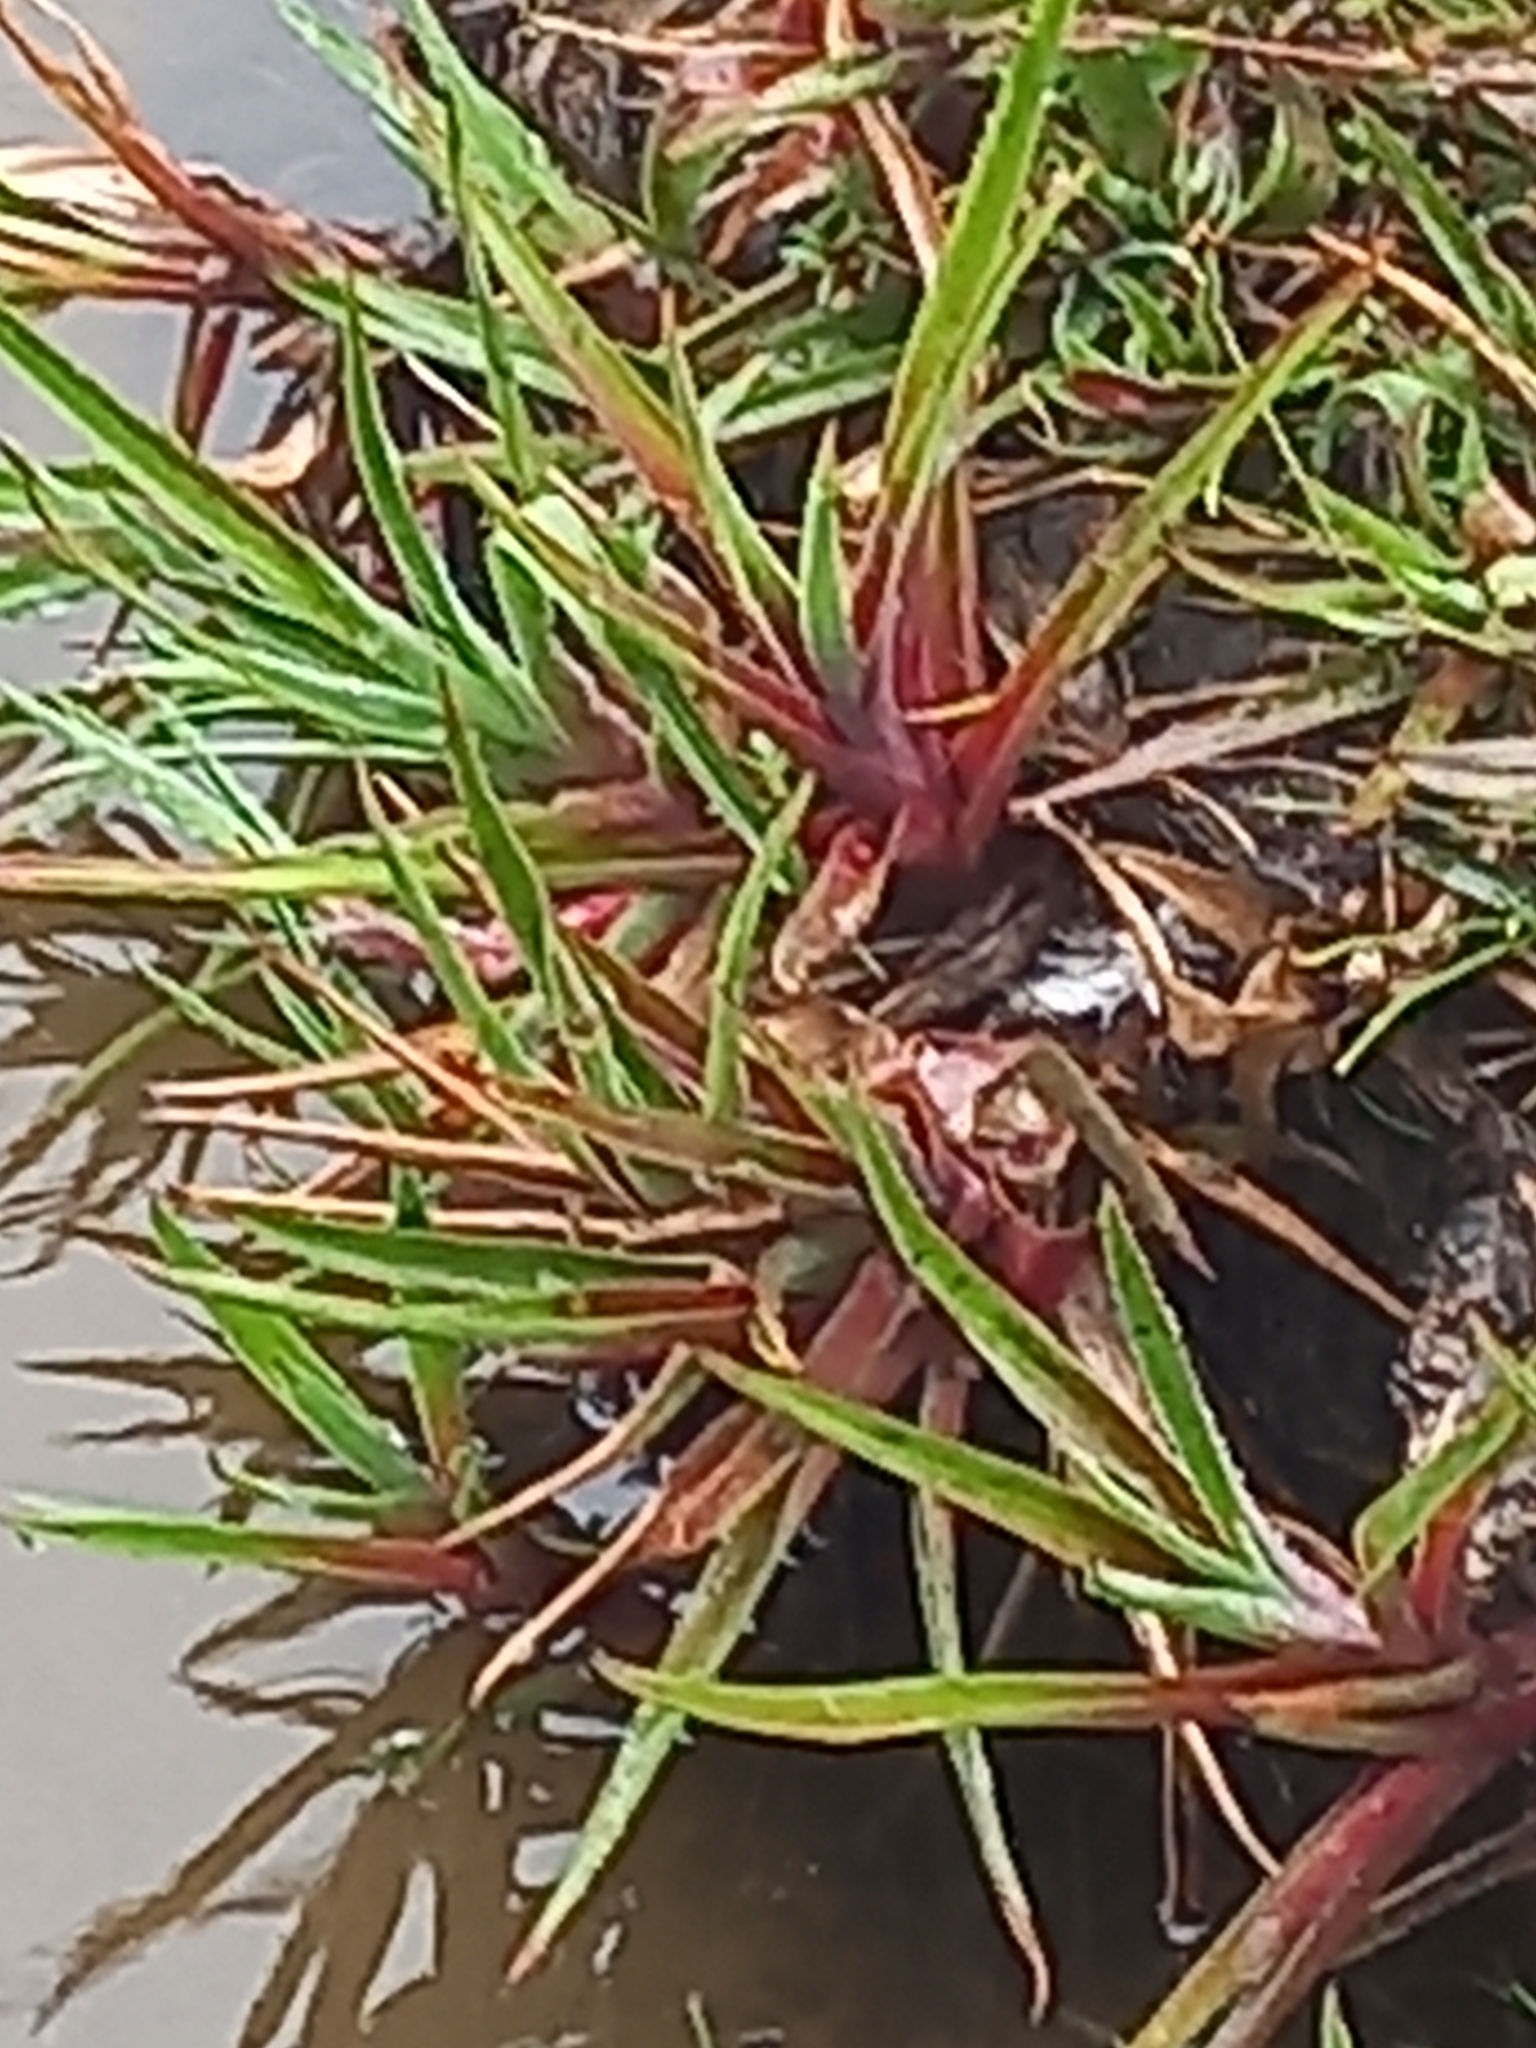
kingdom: Plantae
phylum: Tracheophyta
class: Liliopsida
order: Poales
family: Juncaceae
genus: Juncus
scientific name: Juncus lomatophyllus
